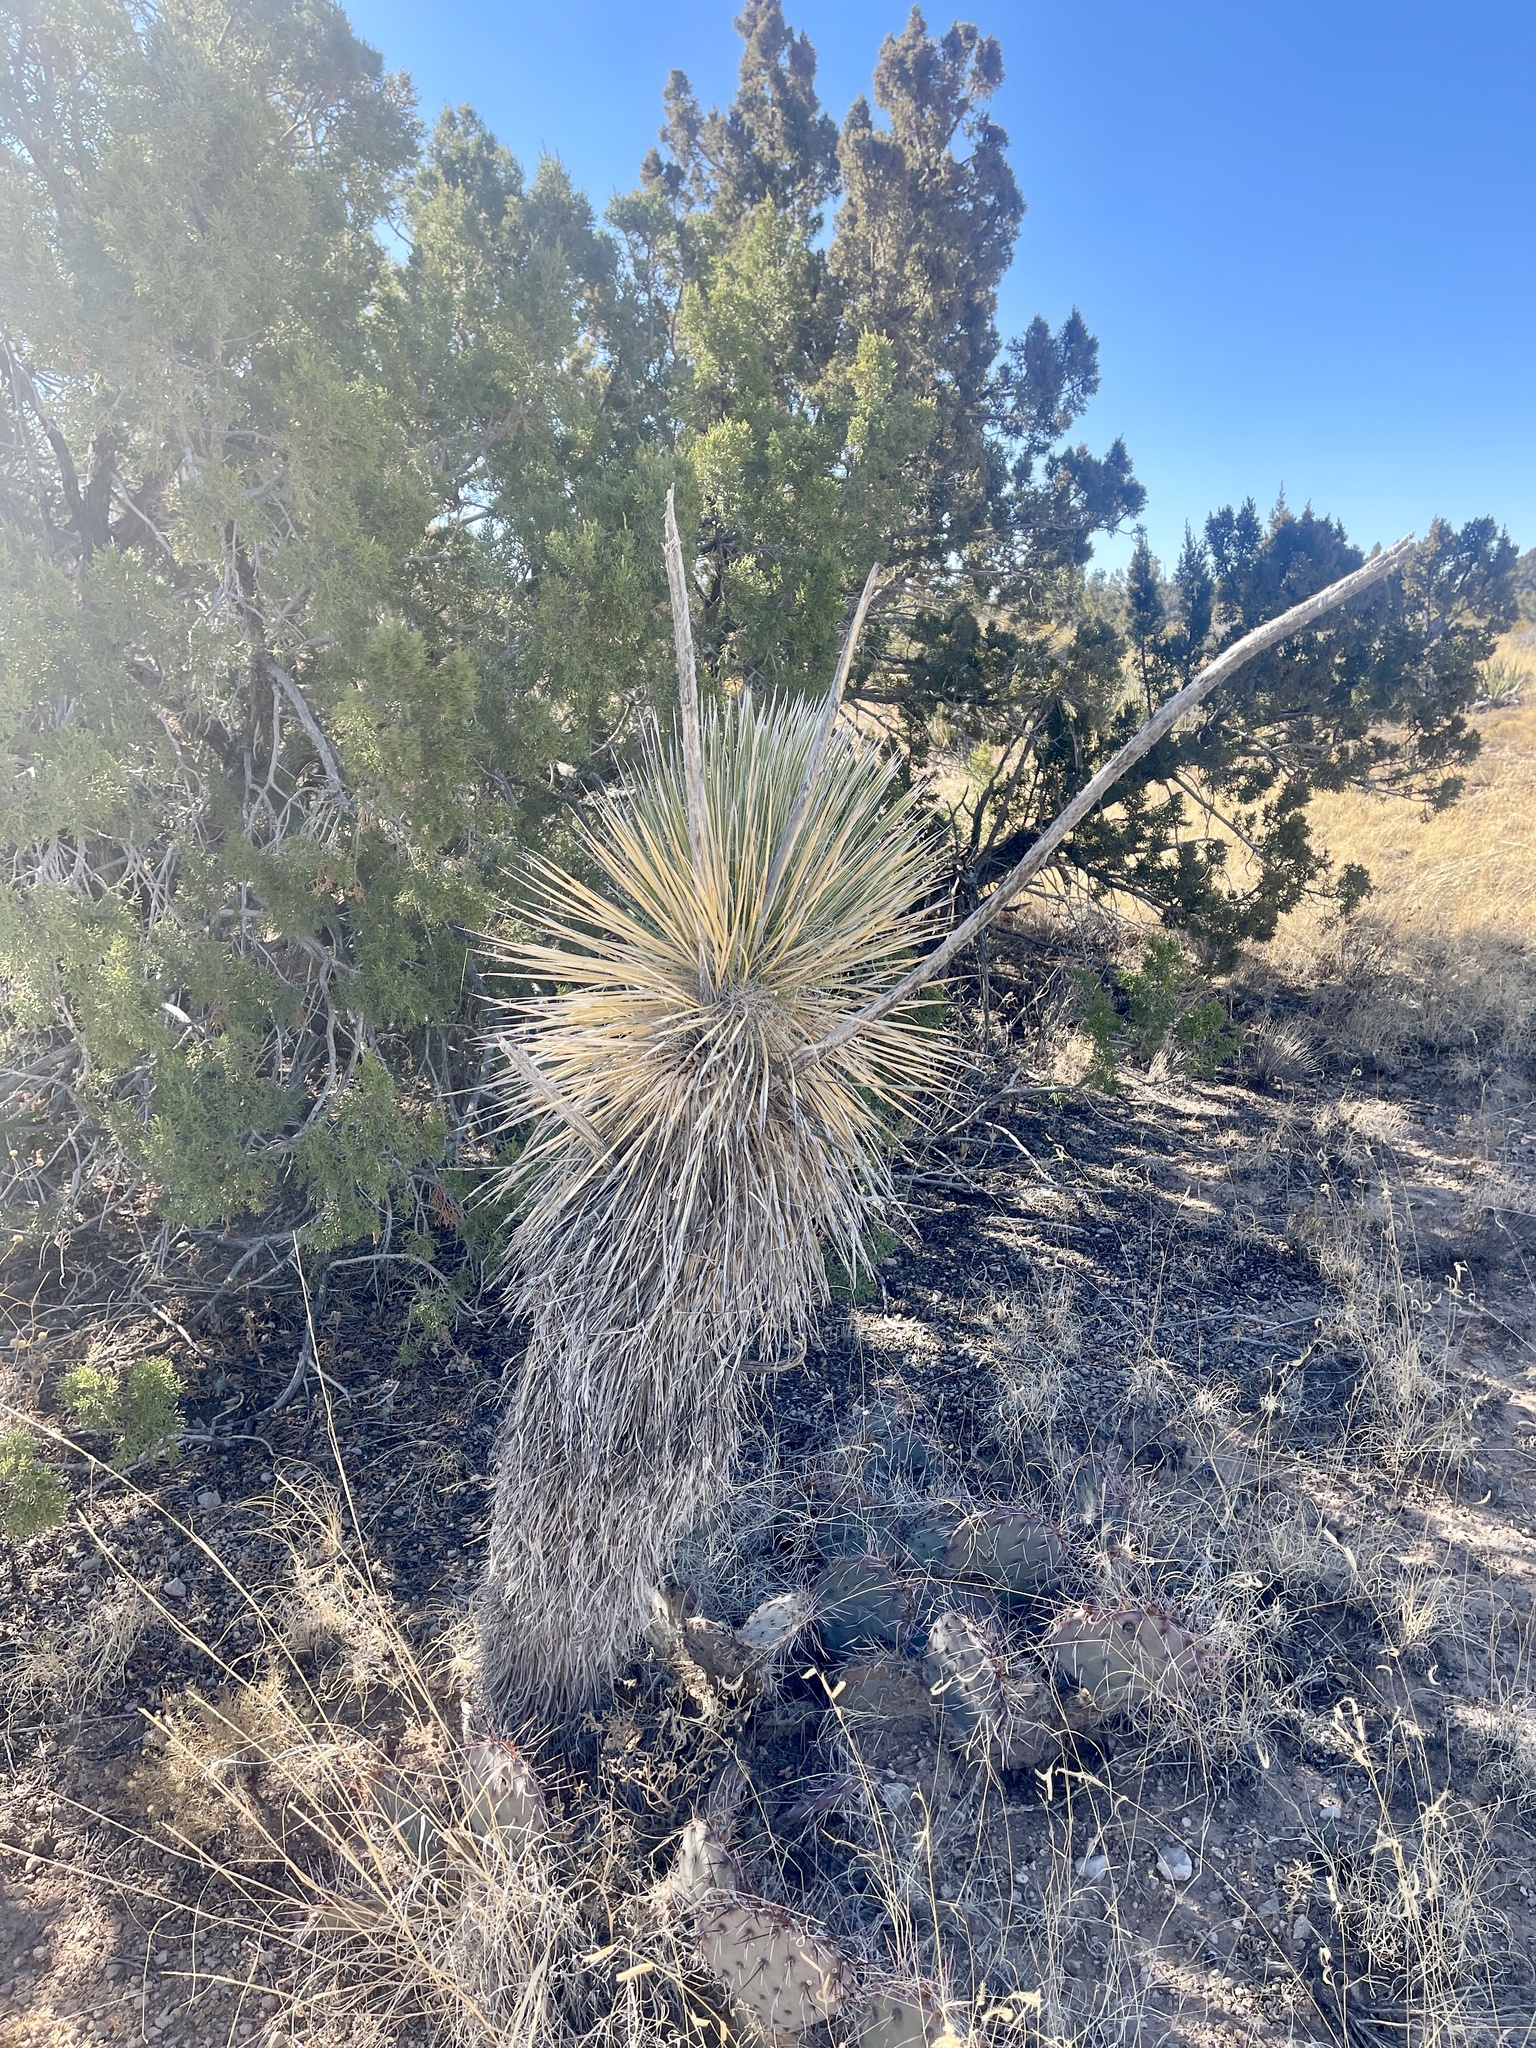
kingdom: Plantae
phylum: Tracheophyta
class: Liliopsida
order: Asparagales
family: Asparagaceae
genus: Yucca
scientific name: Yucca elata
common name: Palmella
